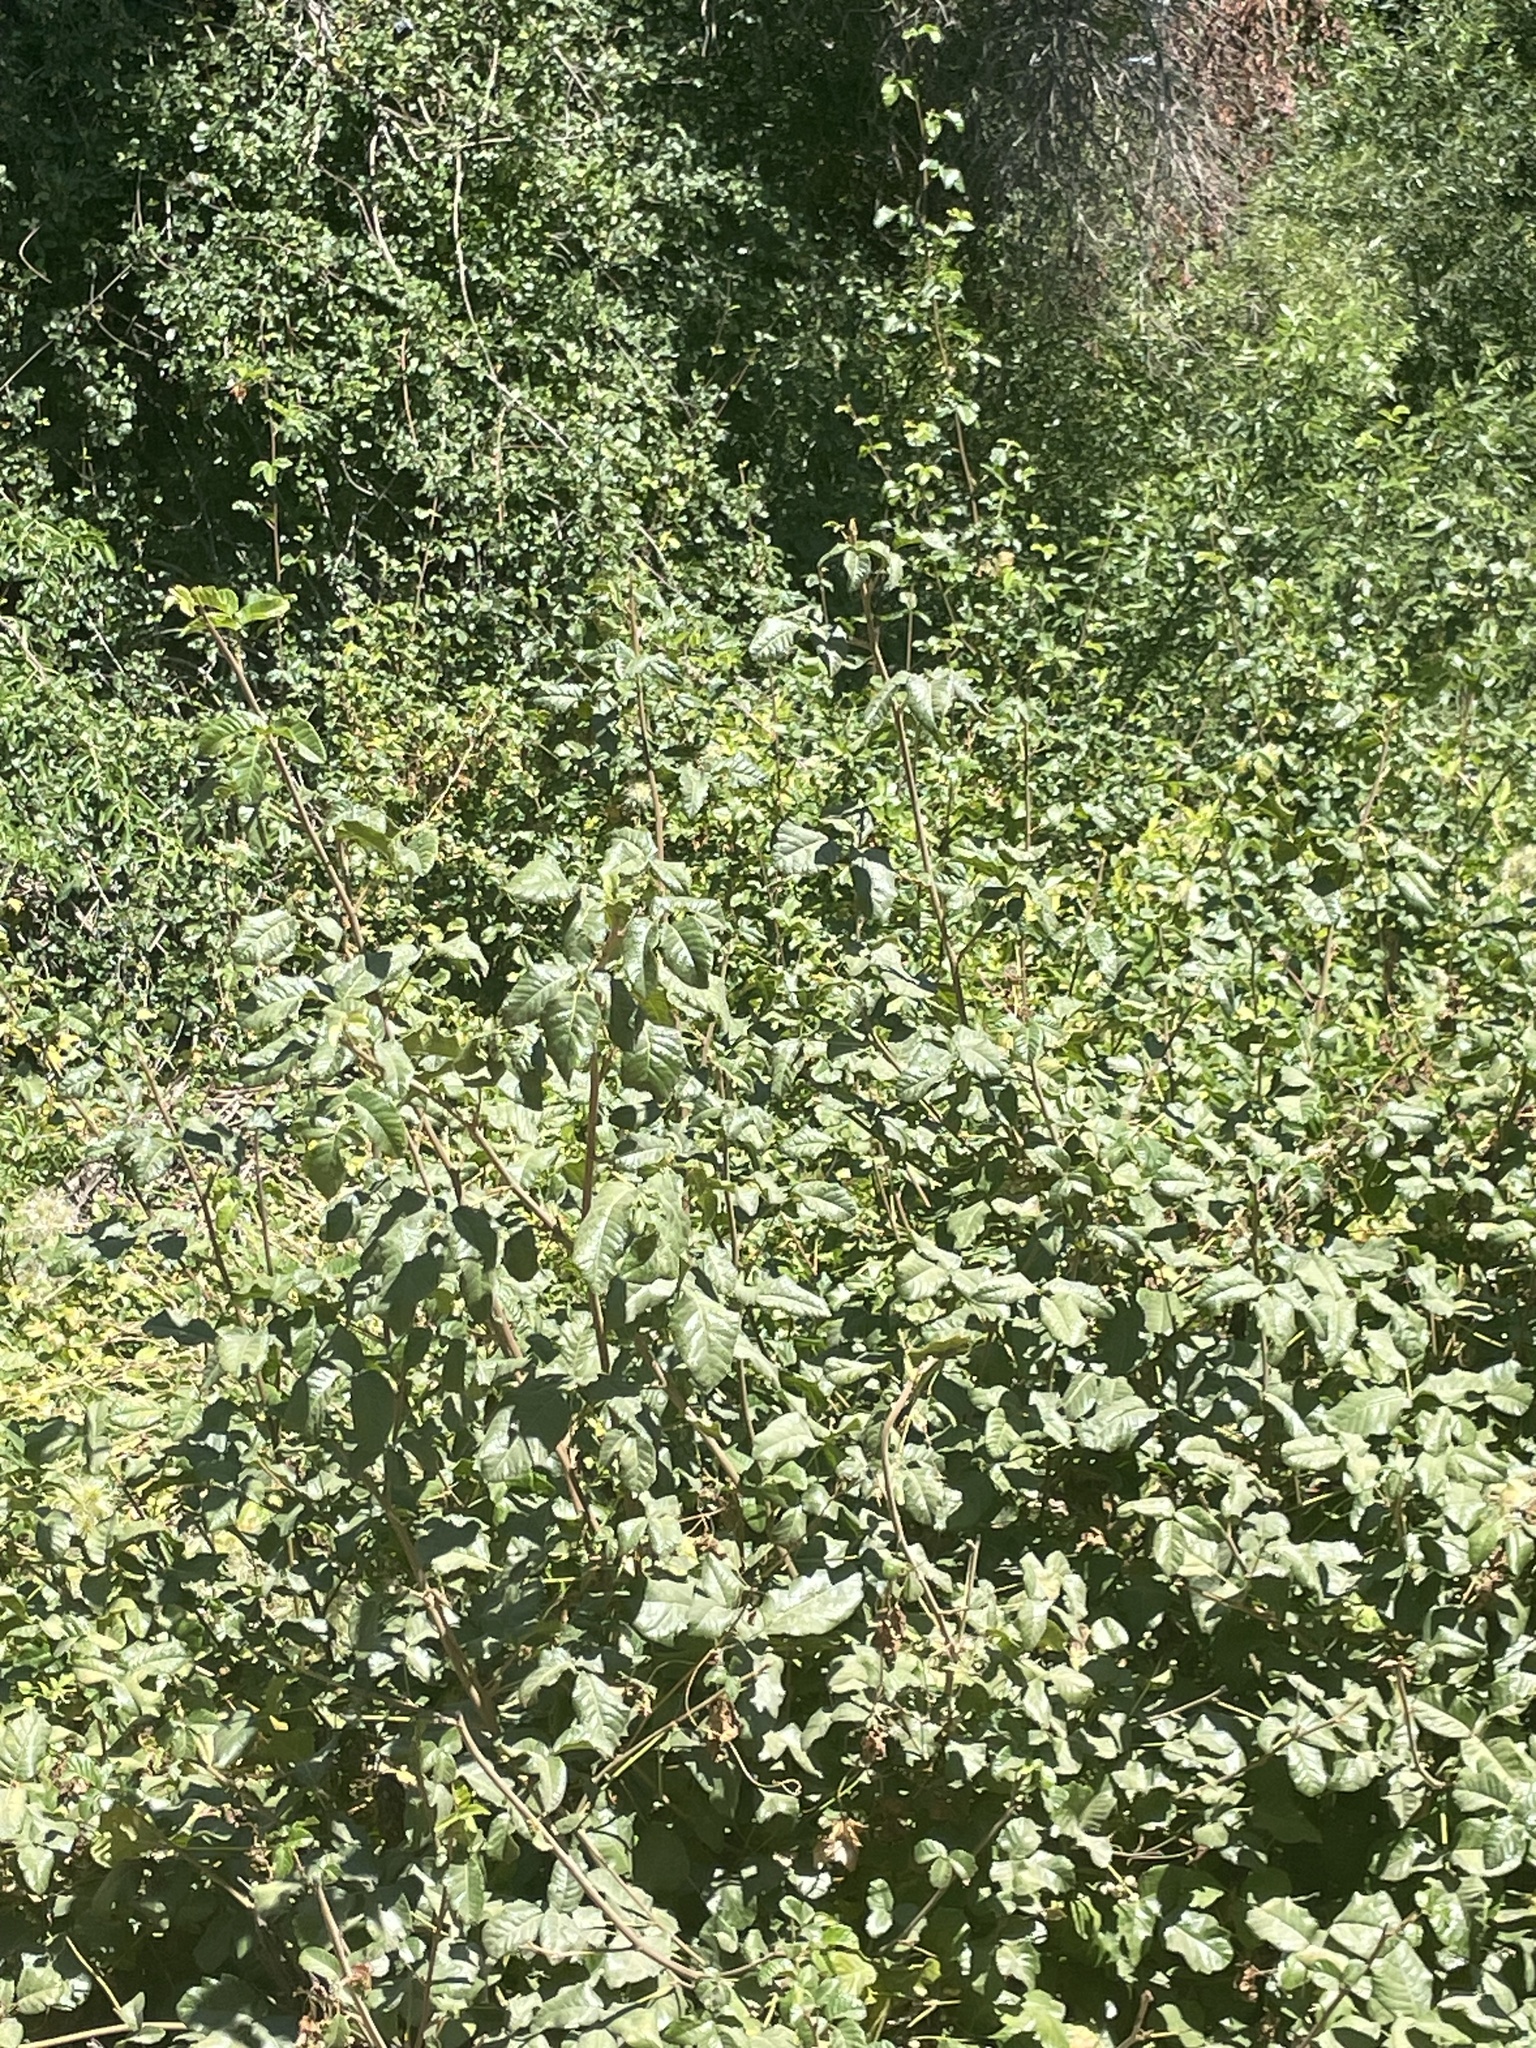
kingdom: Plantae
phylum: Tracheophyta
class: Magnoliopsida
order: Sapindales
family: Anacardiaceae
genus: Toxicodendron
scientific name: Toxicodendron diversilobum
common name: Pacific poison-oak
